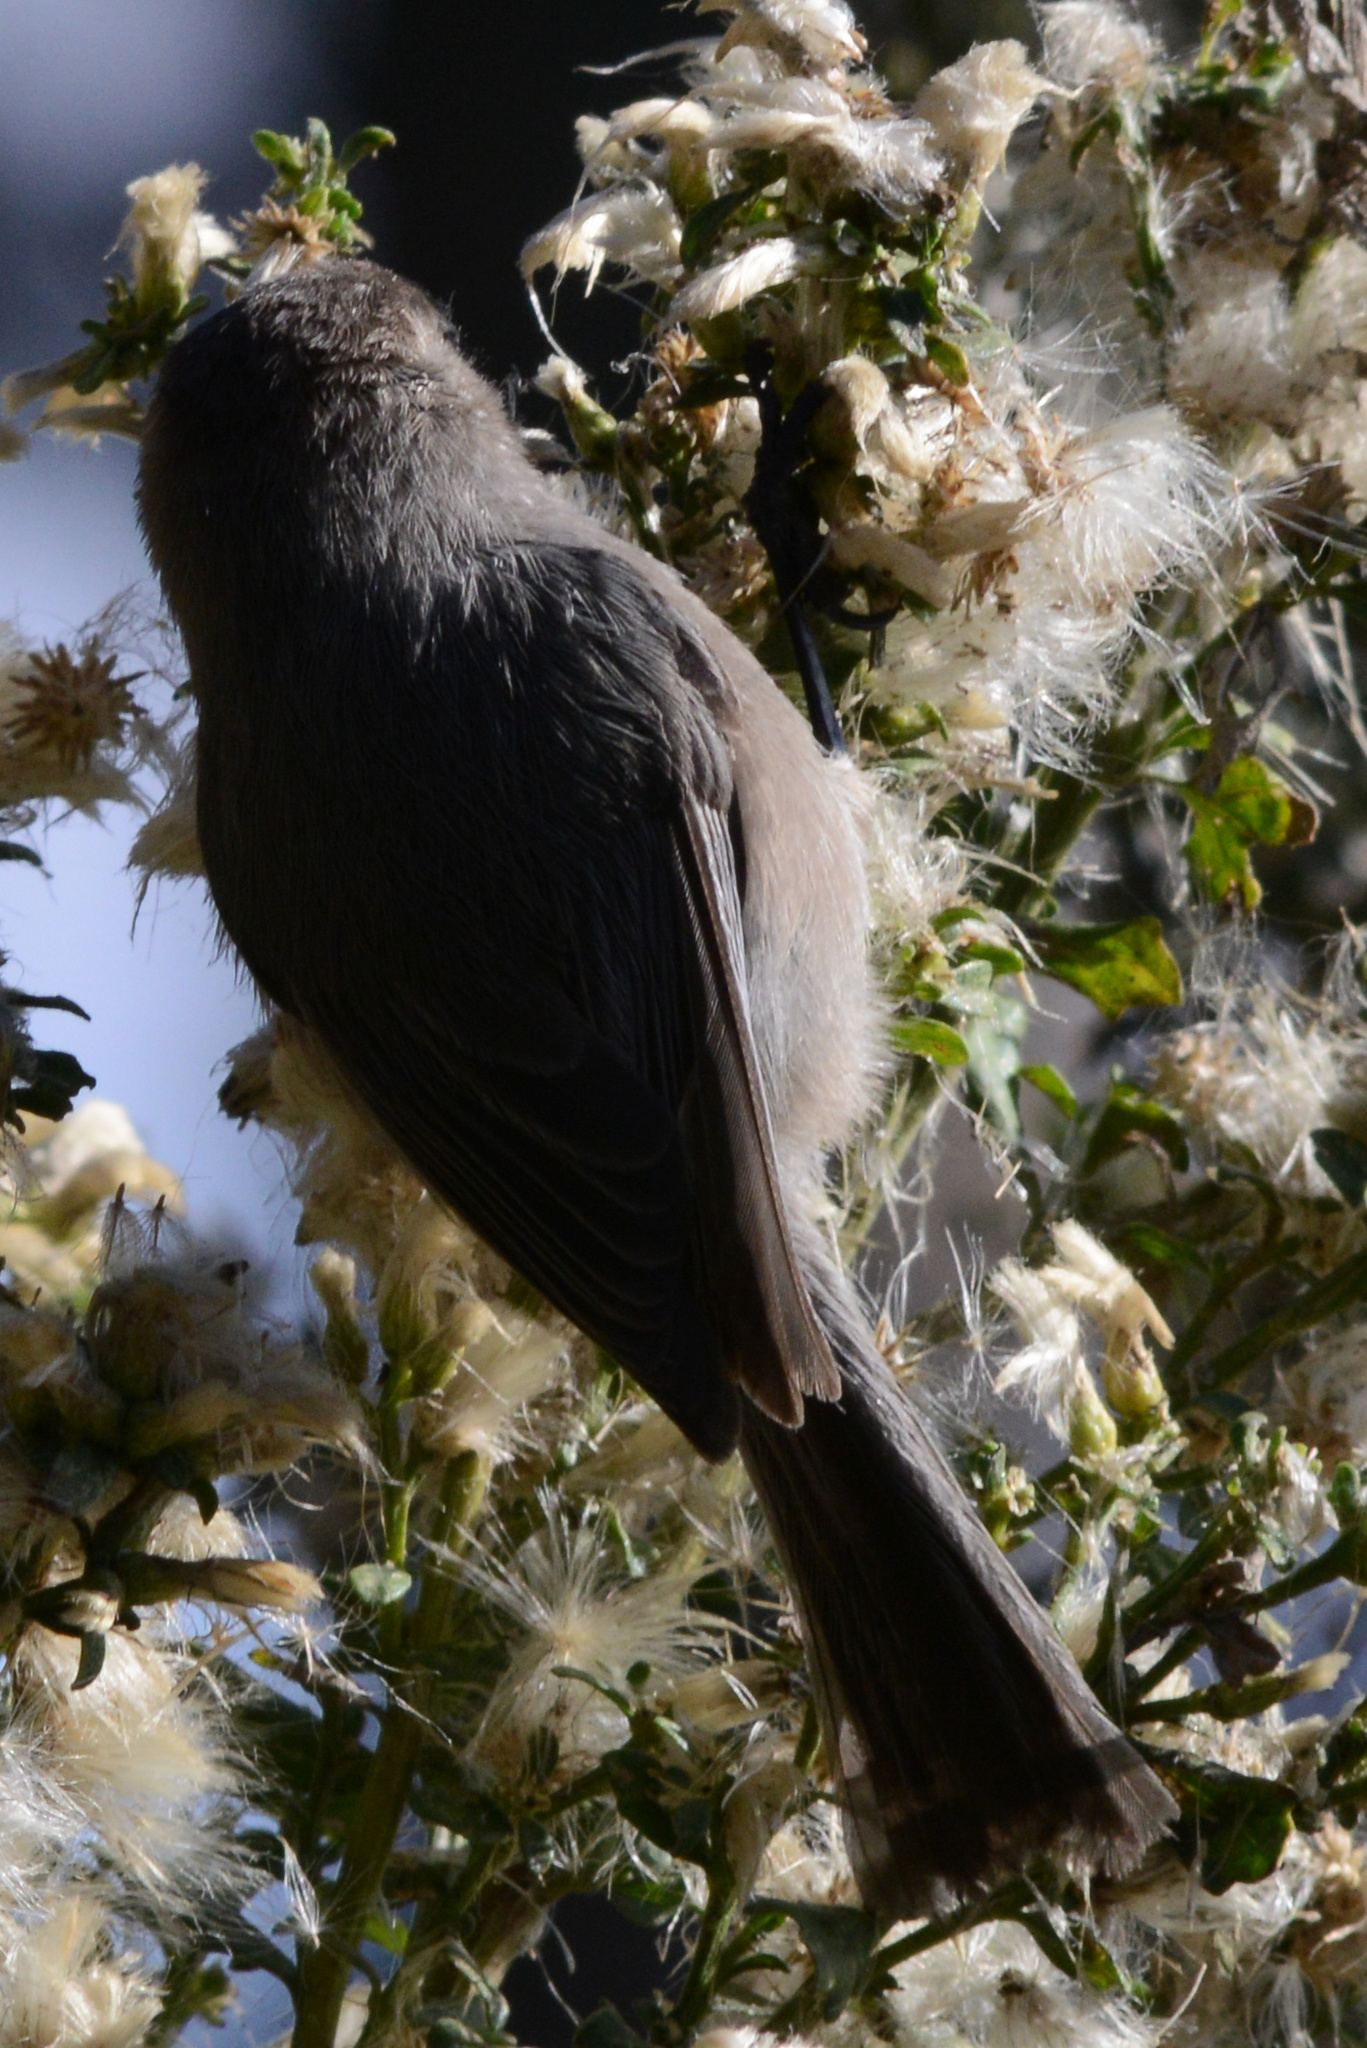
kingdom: Animalia
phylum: Chordata
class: Aves
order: Passeriformes
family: Aegithalidae
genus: Psaltriparus
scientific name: Psaltriparus minimus
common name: American bushtit
